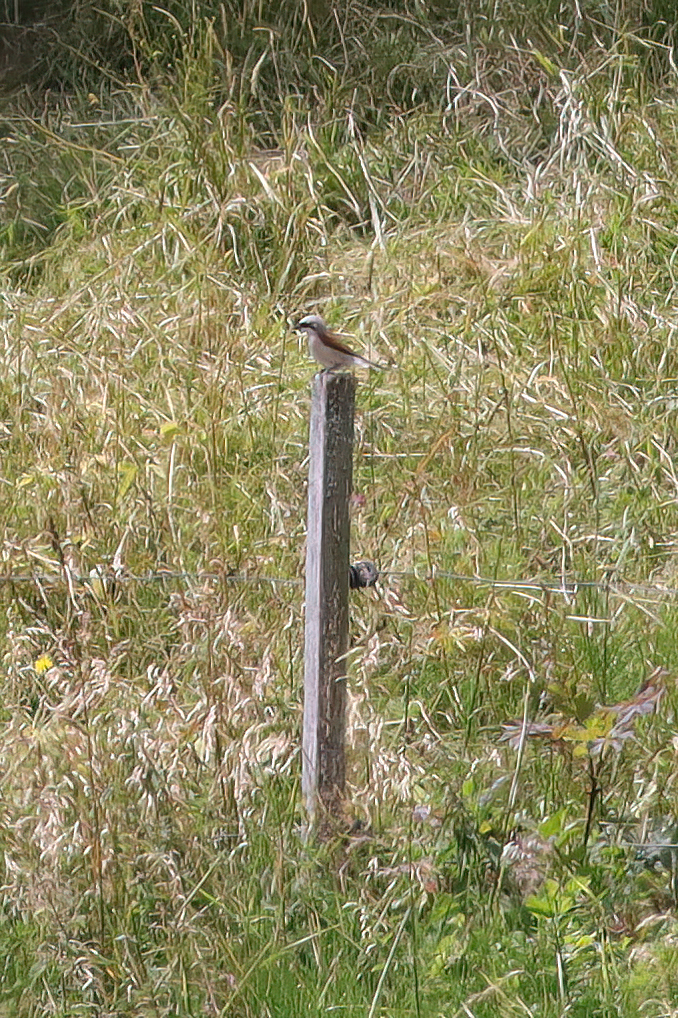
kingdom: Animalia
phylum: Chordata
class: Aves
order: Passeriformes
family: Laniidae
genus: Lanius
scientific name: Lanius collurio
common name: Red-backed shrike
